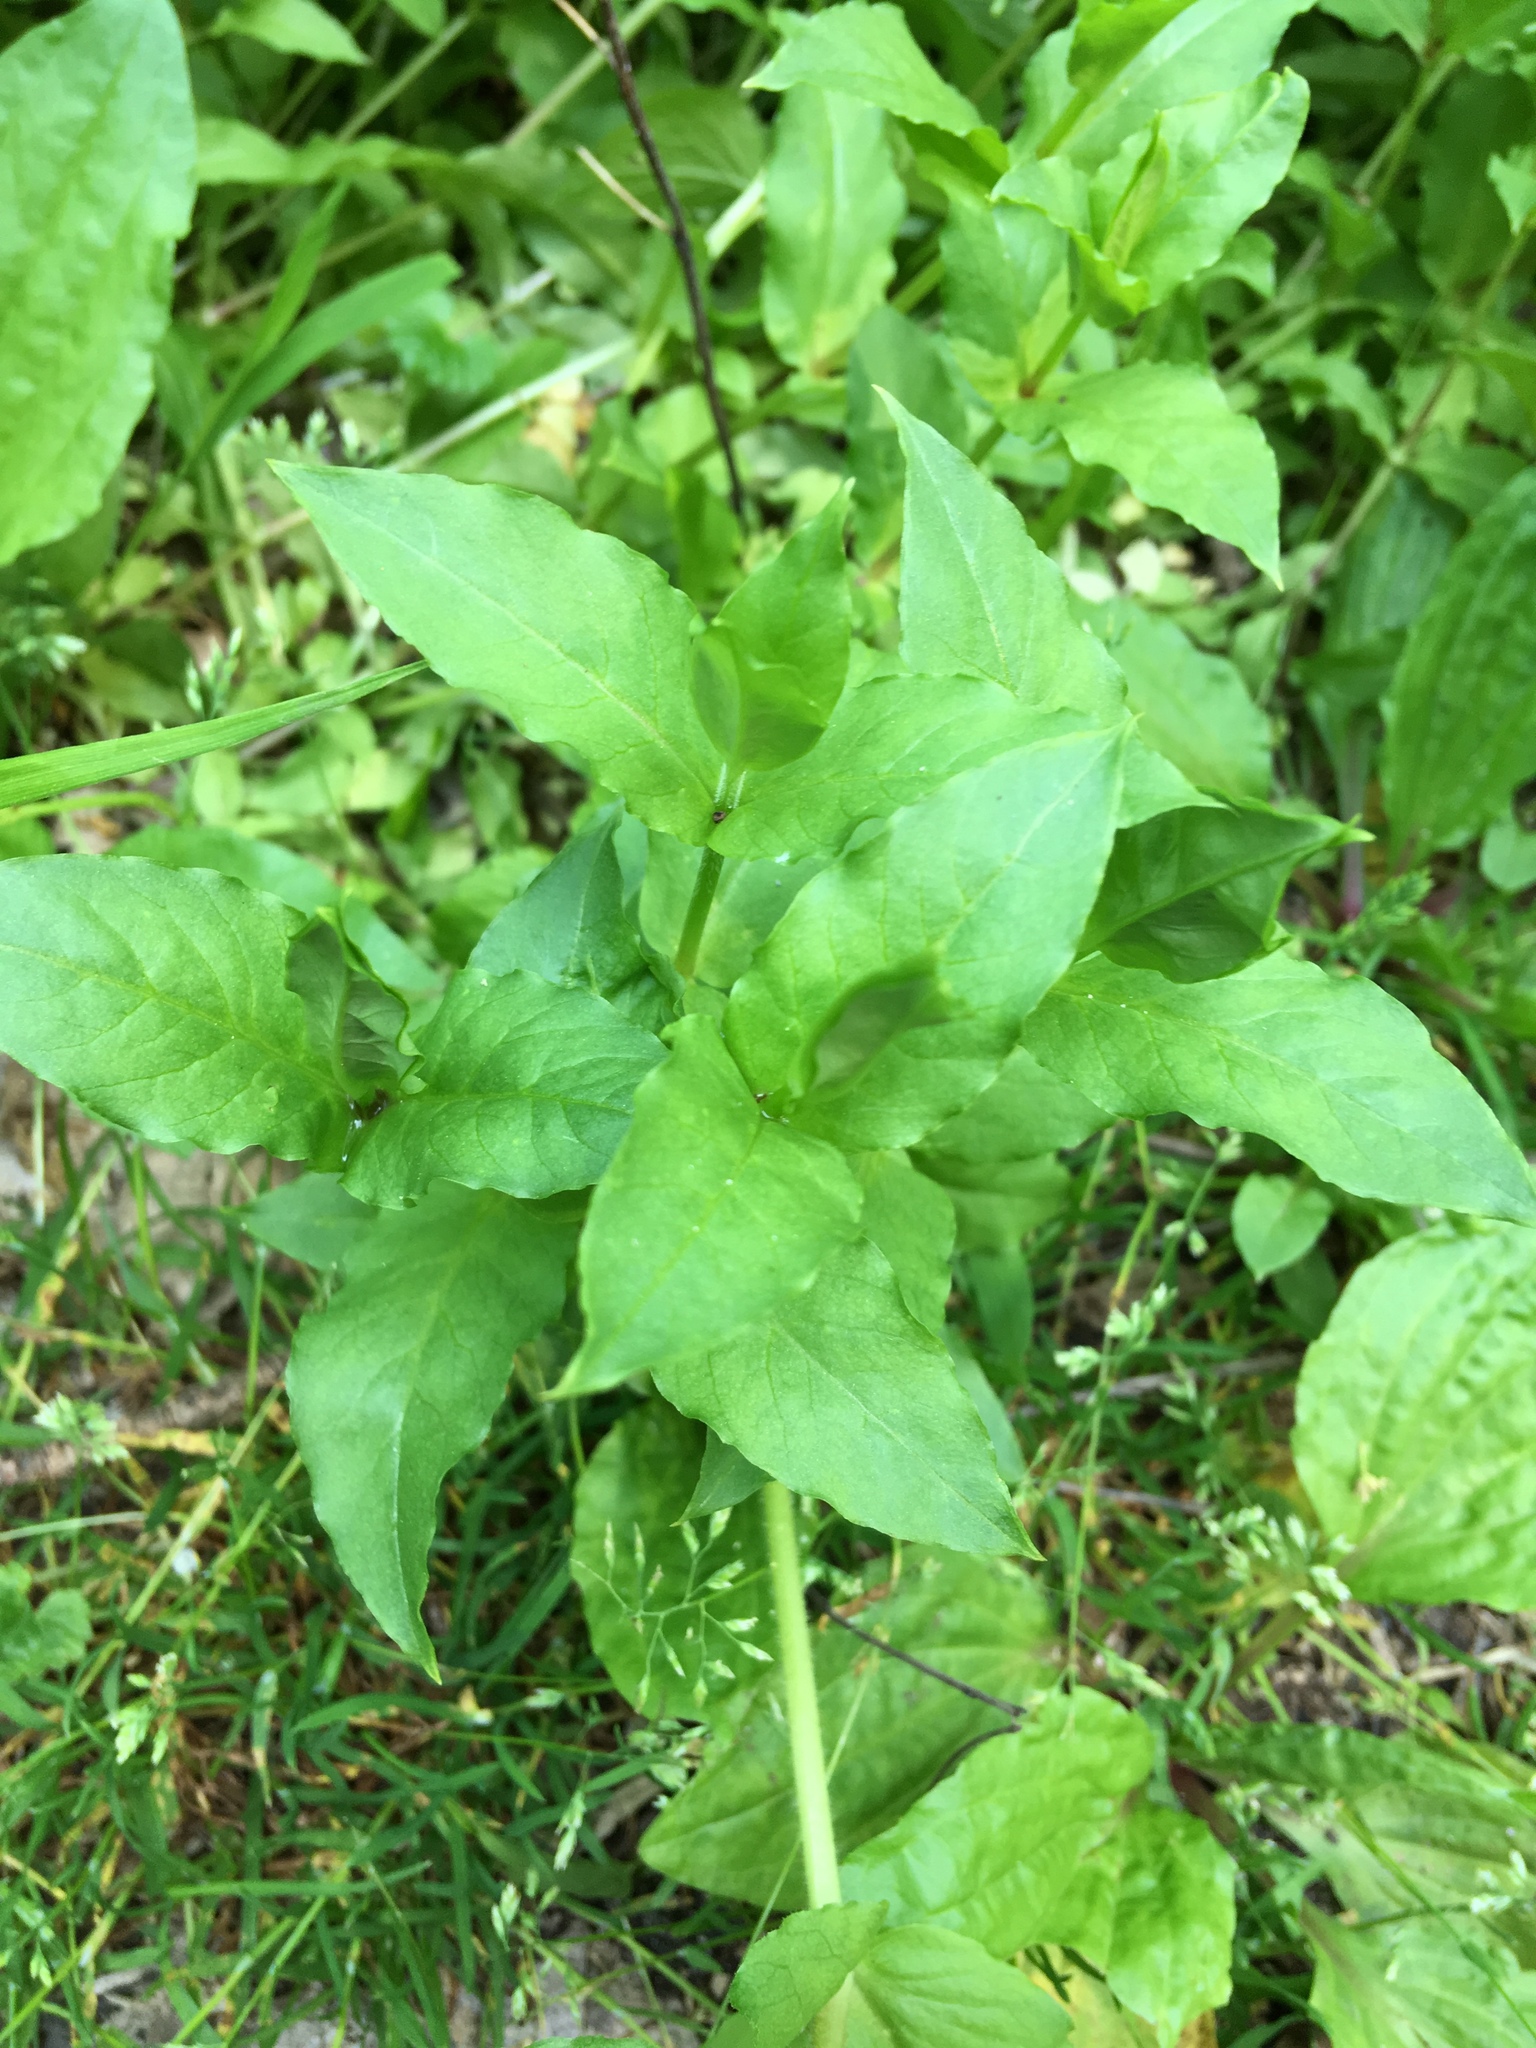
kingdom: Plantae
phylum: Tracheophyta
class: Magnoliopsida
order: Caryophyllales
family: Caryophyllaceae
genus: Stellaria
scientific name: Stellaria aquatica
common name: Water chickweed
